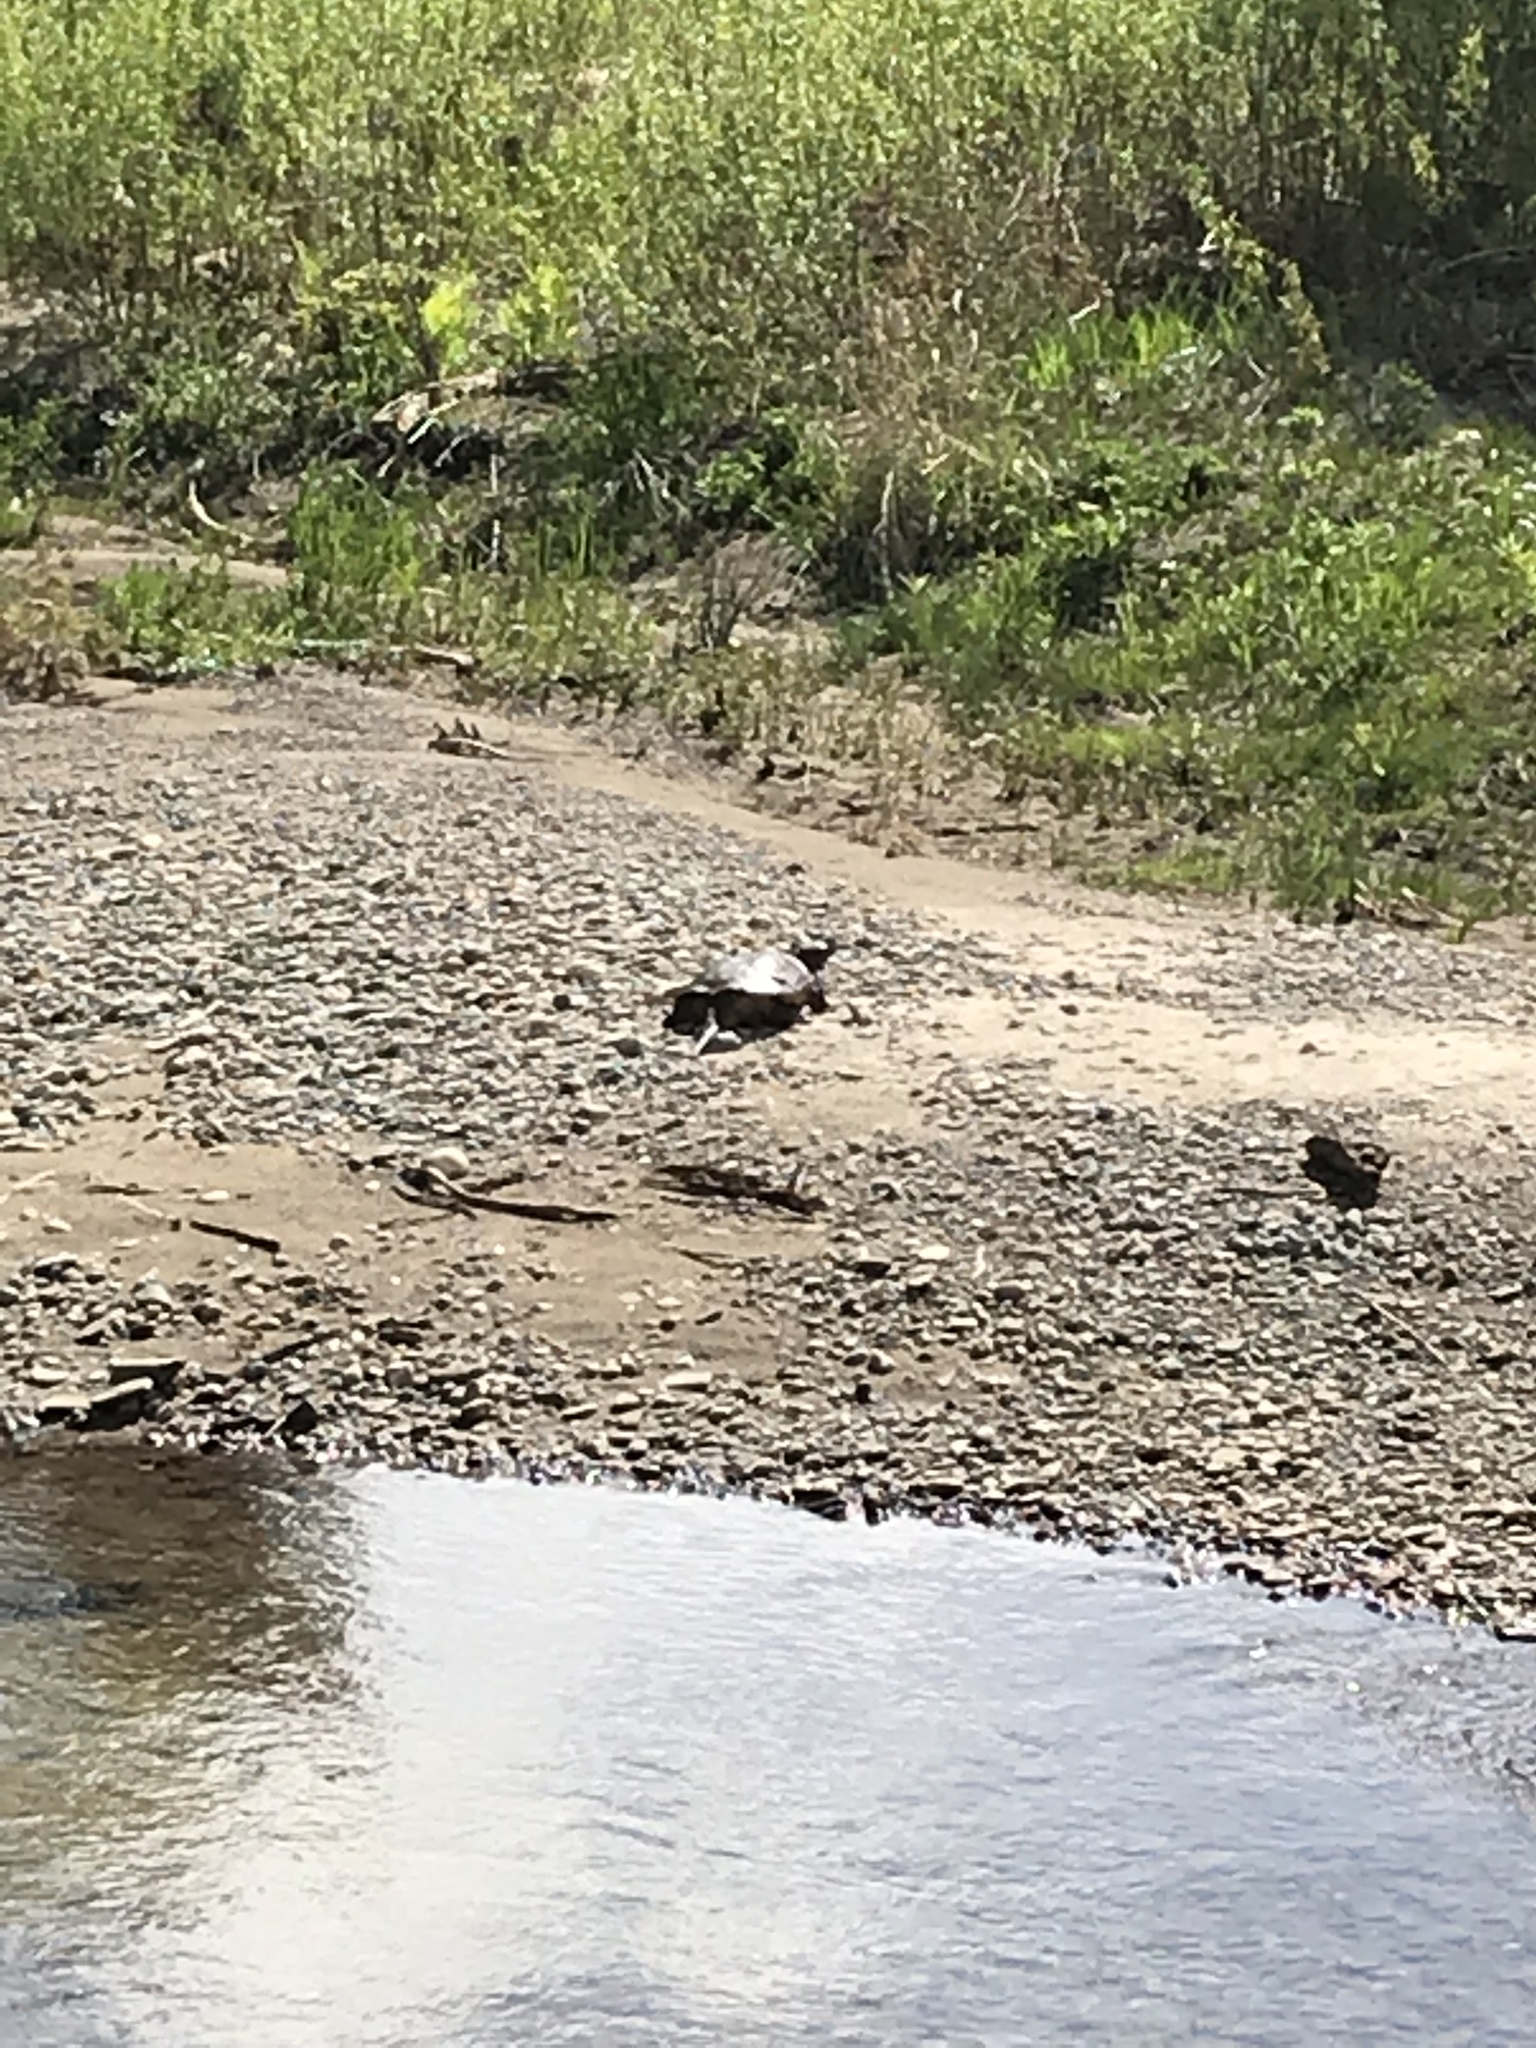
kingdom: Animalia
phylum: Chordata
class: Testudines
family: Chelydridae
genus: Chelydra
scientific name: Chelydra serpentina
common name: Common snapping turtle
